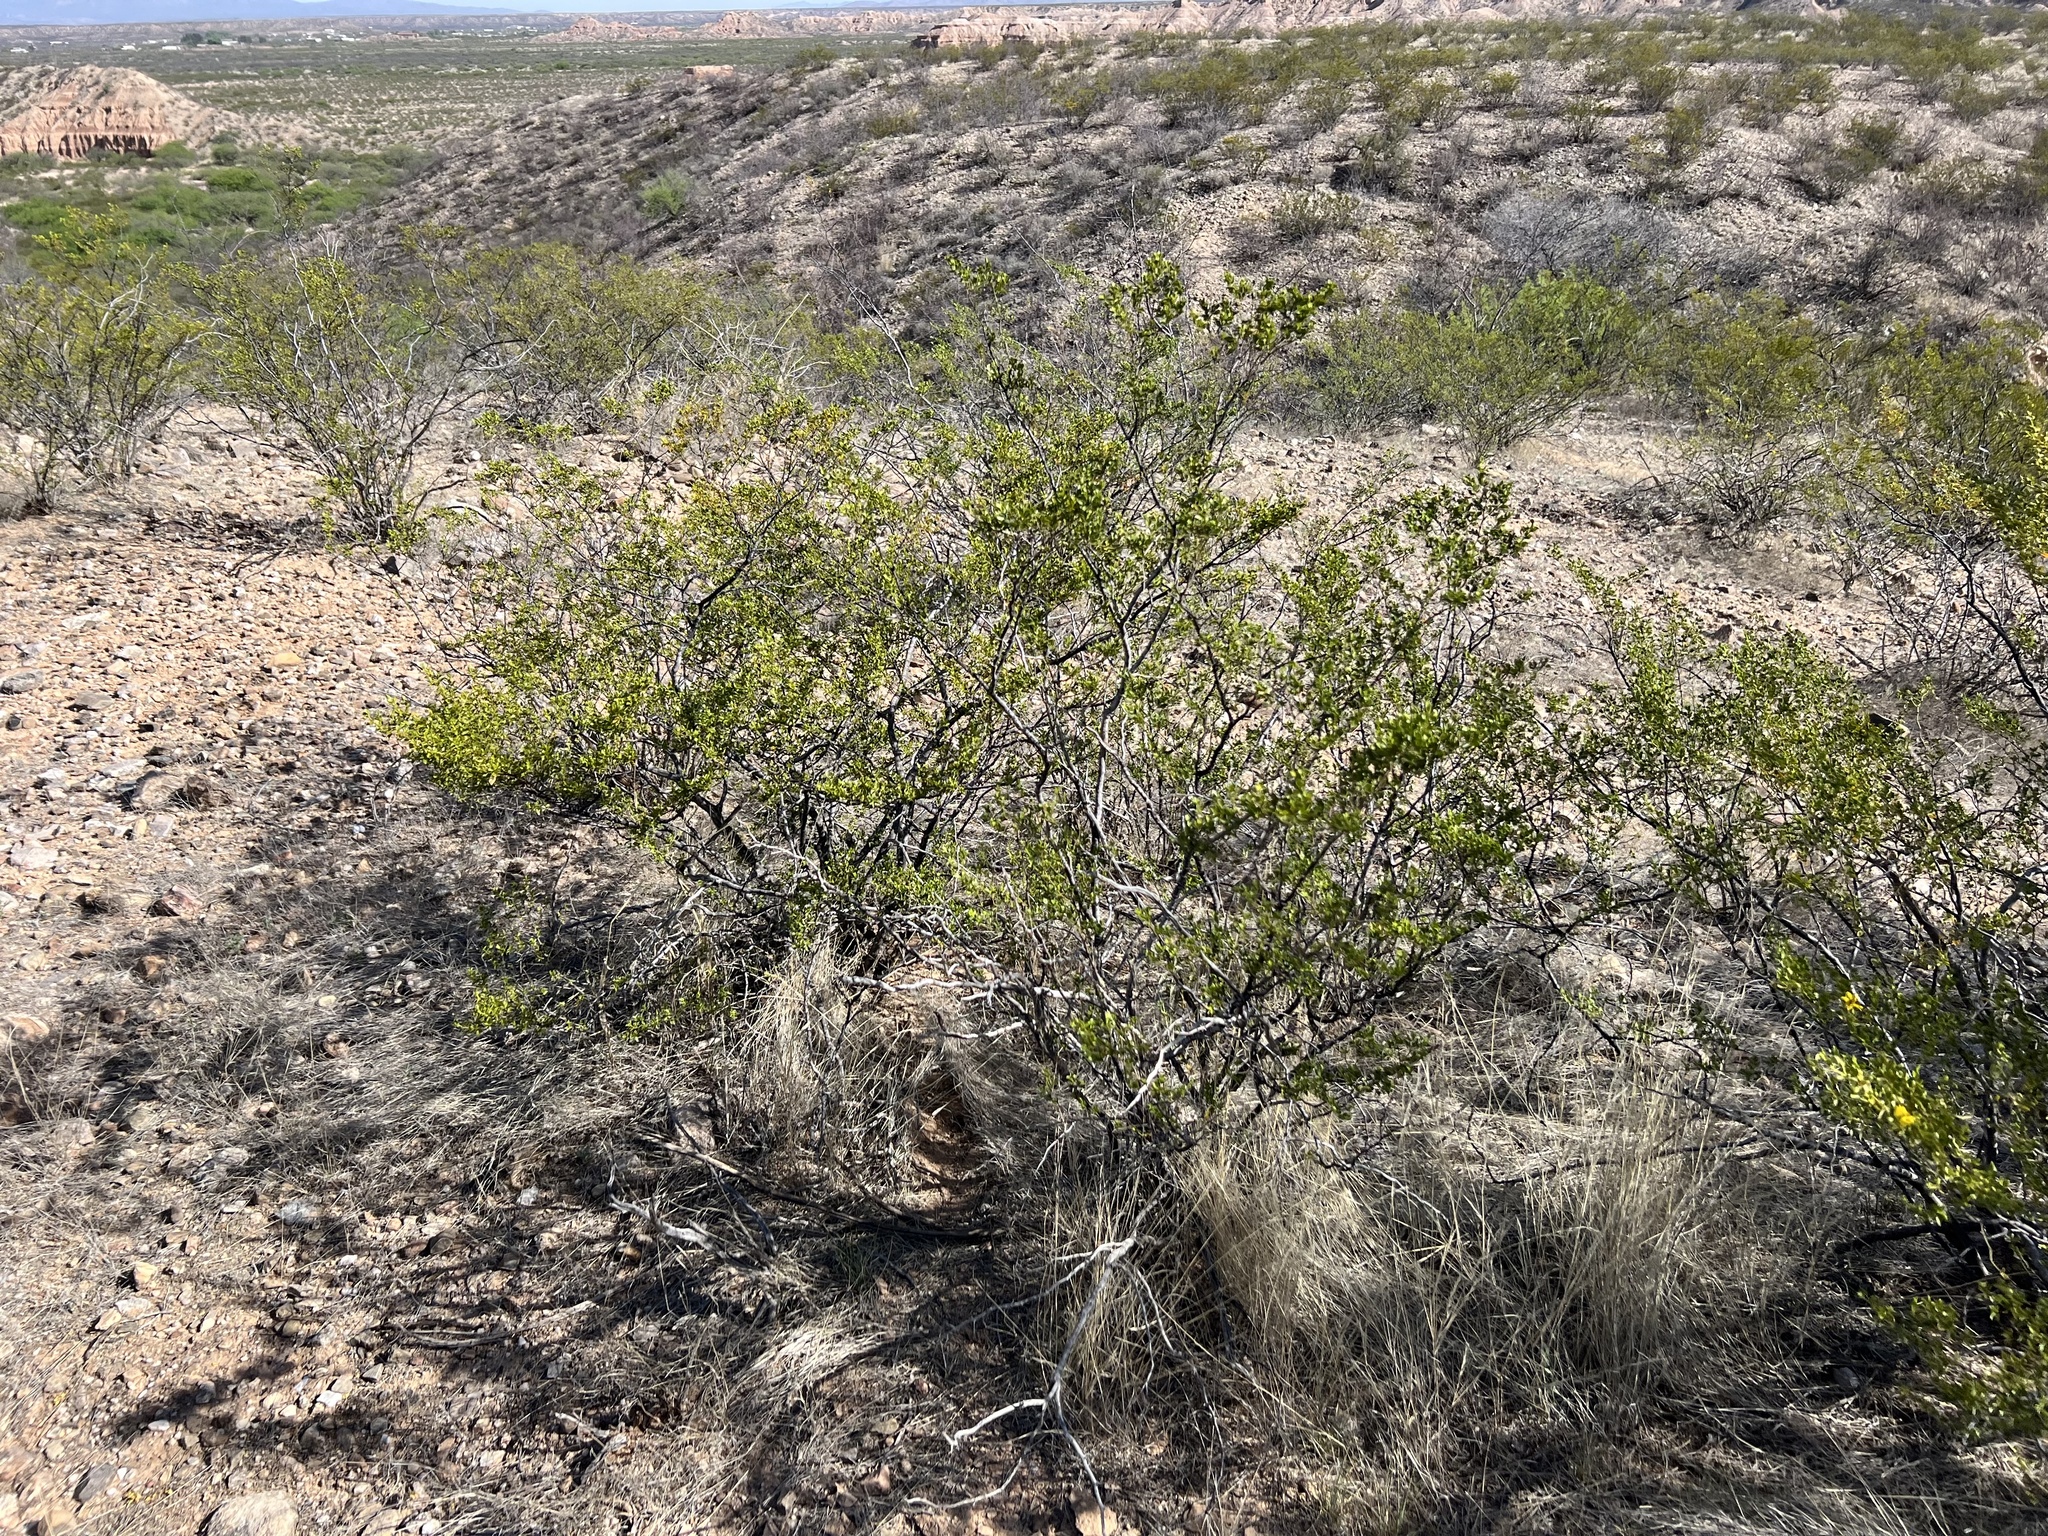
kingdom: Plantae
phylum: Tracheophyta
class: Magnoliopsida
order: Zygophyllales
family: Zygophyllaceae
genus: Larrea
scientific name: Larrea tridentata
